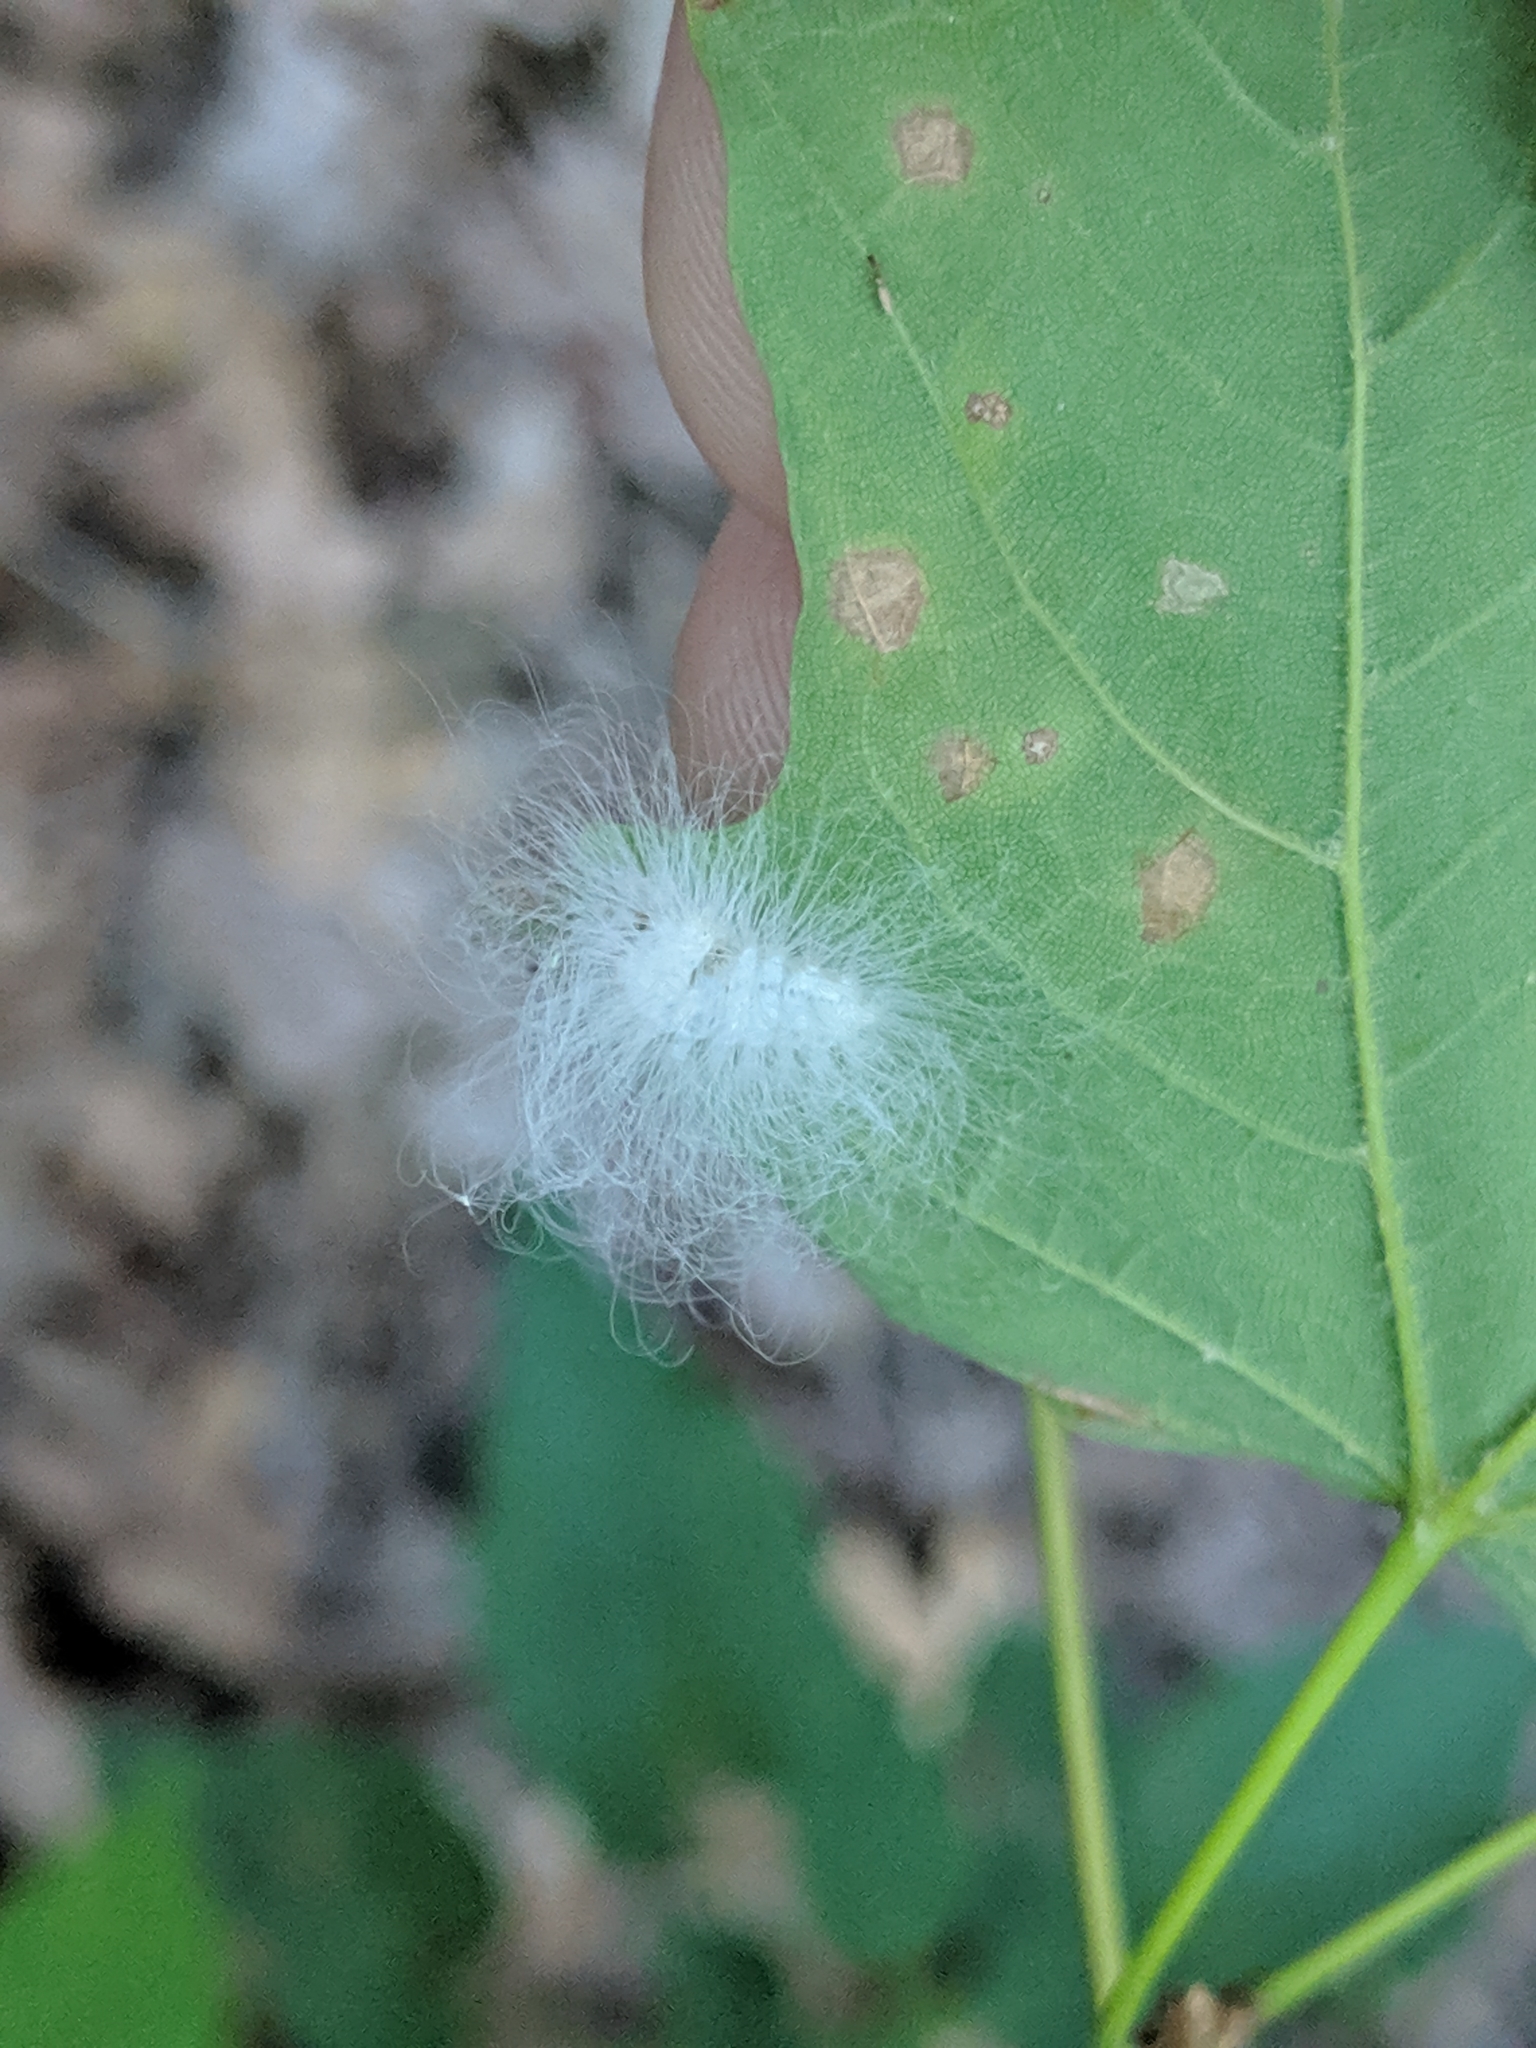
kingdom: Animalia
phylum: Arthropoda
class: Insecta
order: Lepidoptera
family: Megalopygidae
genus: Megalopyge
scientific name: Megalopyge crispata
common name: Black-waved flannel moth
